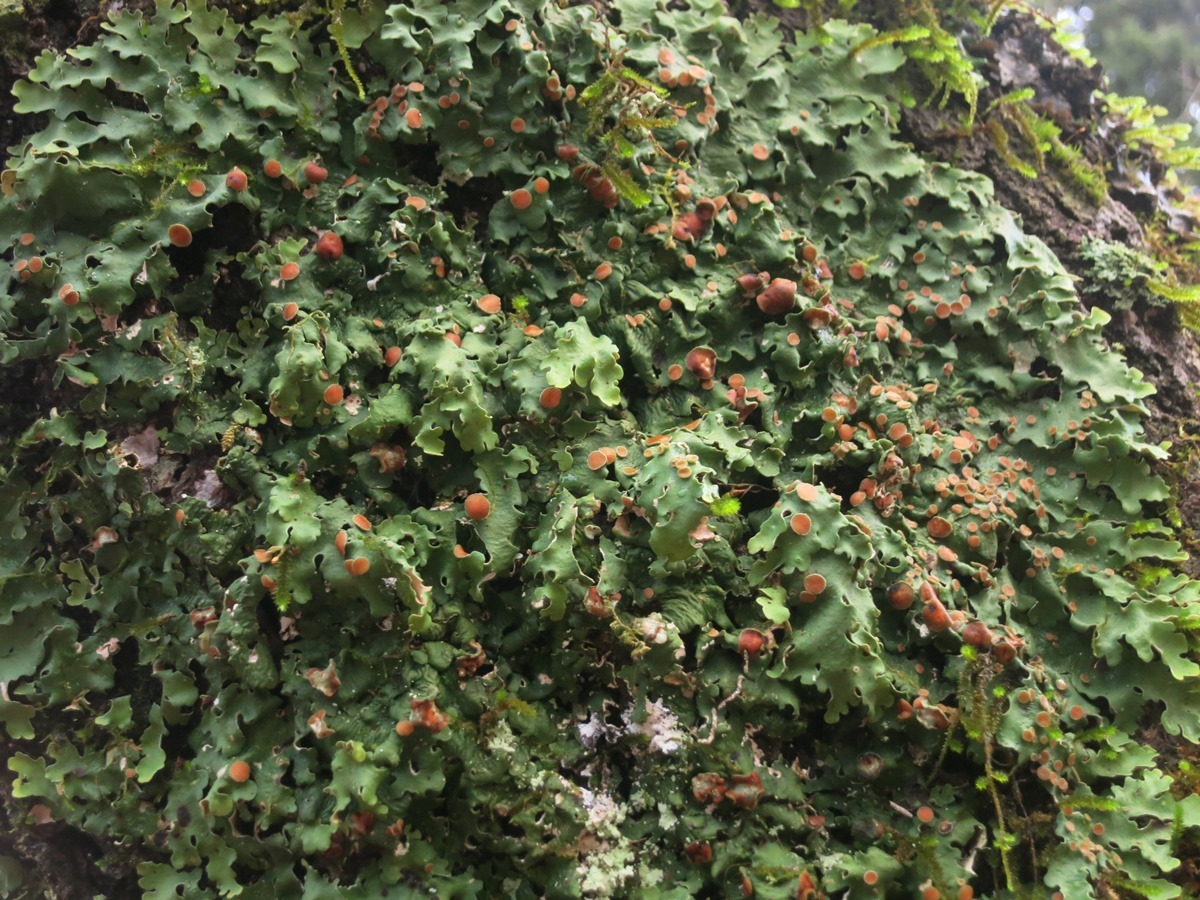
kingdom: Fungi
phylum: Ascomycota
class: Lecanoromycetes
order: Peltigerales
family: Lobariaceae
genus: Ricasolia
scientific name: Ricasolia quercizans
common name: Smooth lungwort
